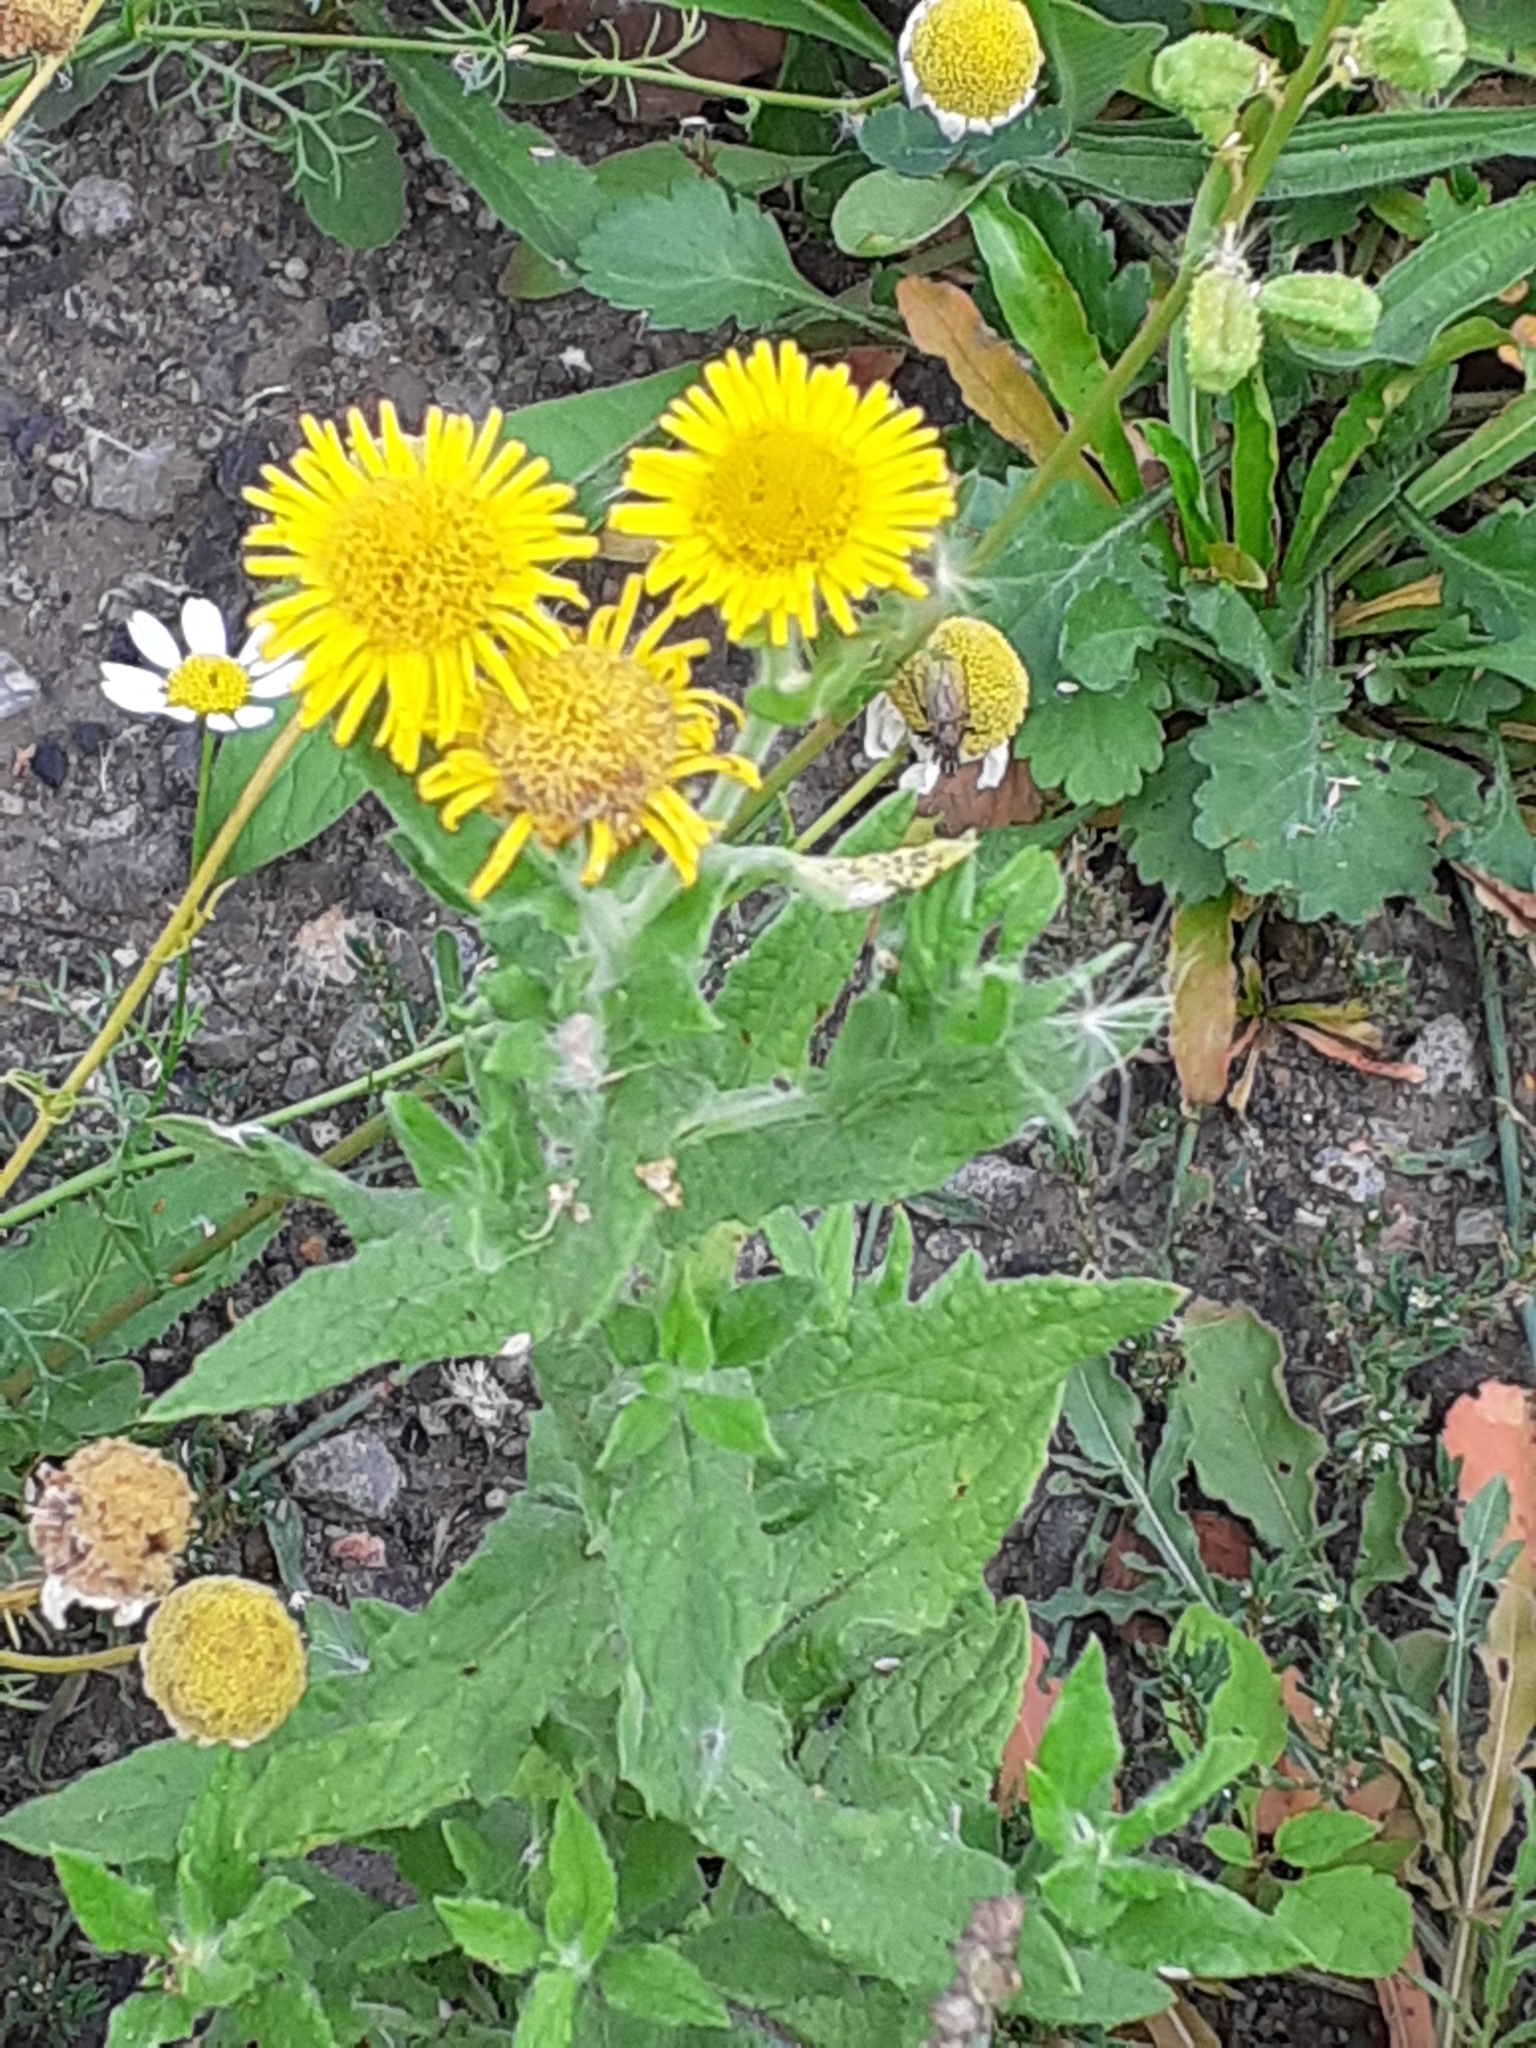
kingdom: Plantae
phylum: Tracheophyta
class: Magnoliopsida
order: Asterales
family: Asteraceae
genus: Pulicaria
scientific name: Pulicaria dysenterica
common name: Common fleabane
